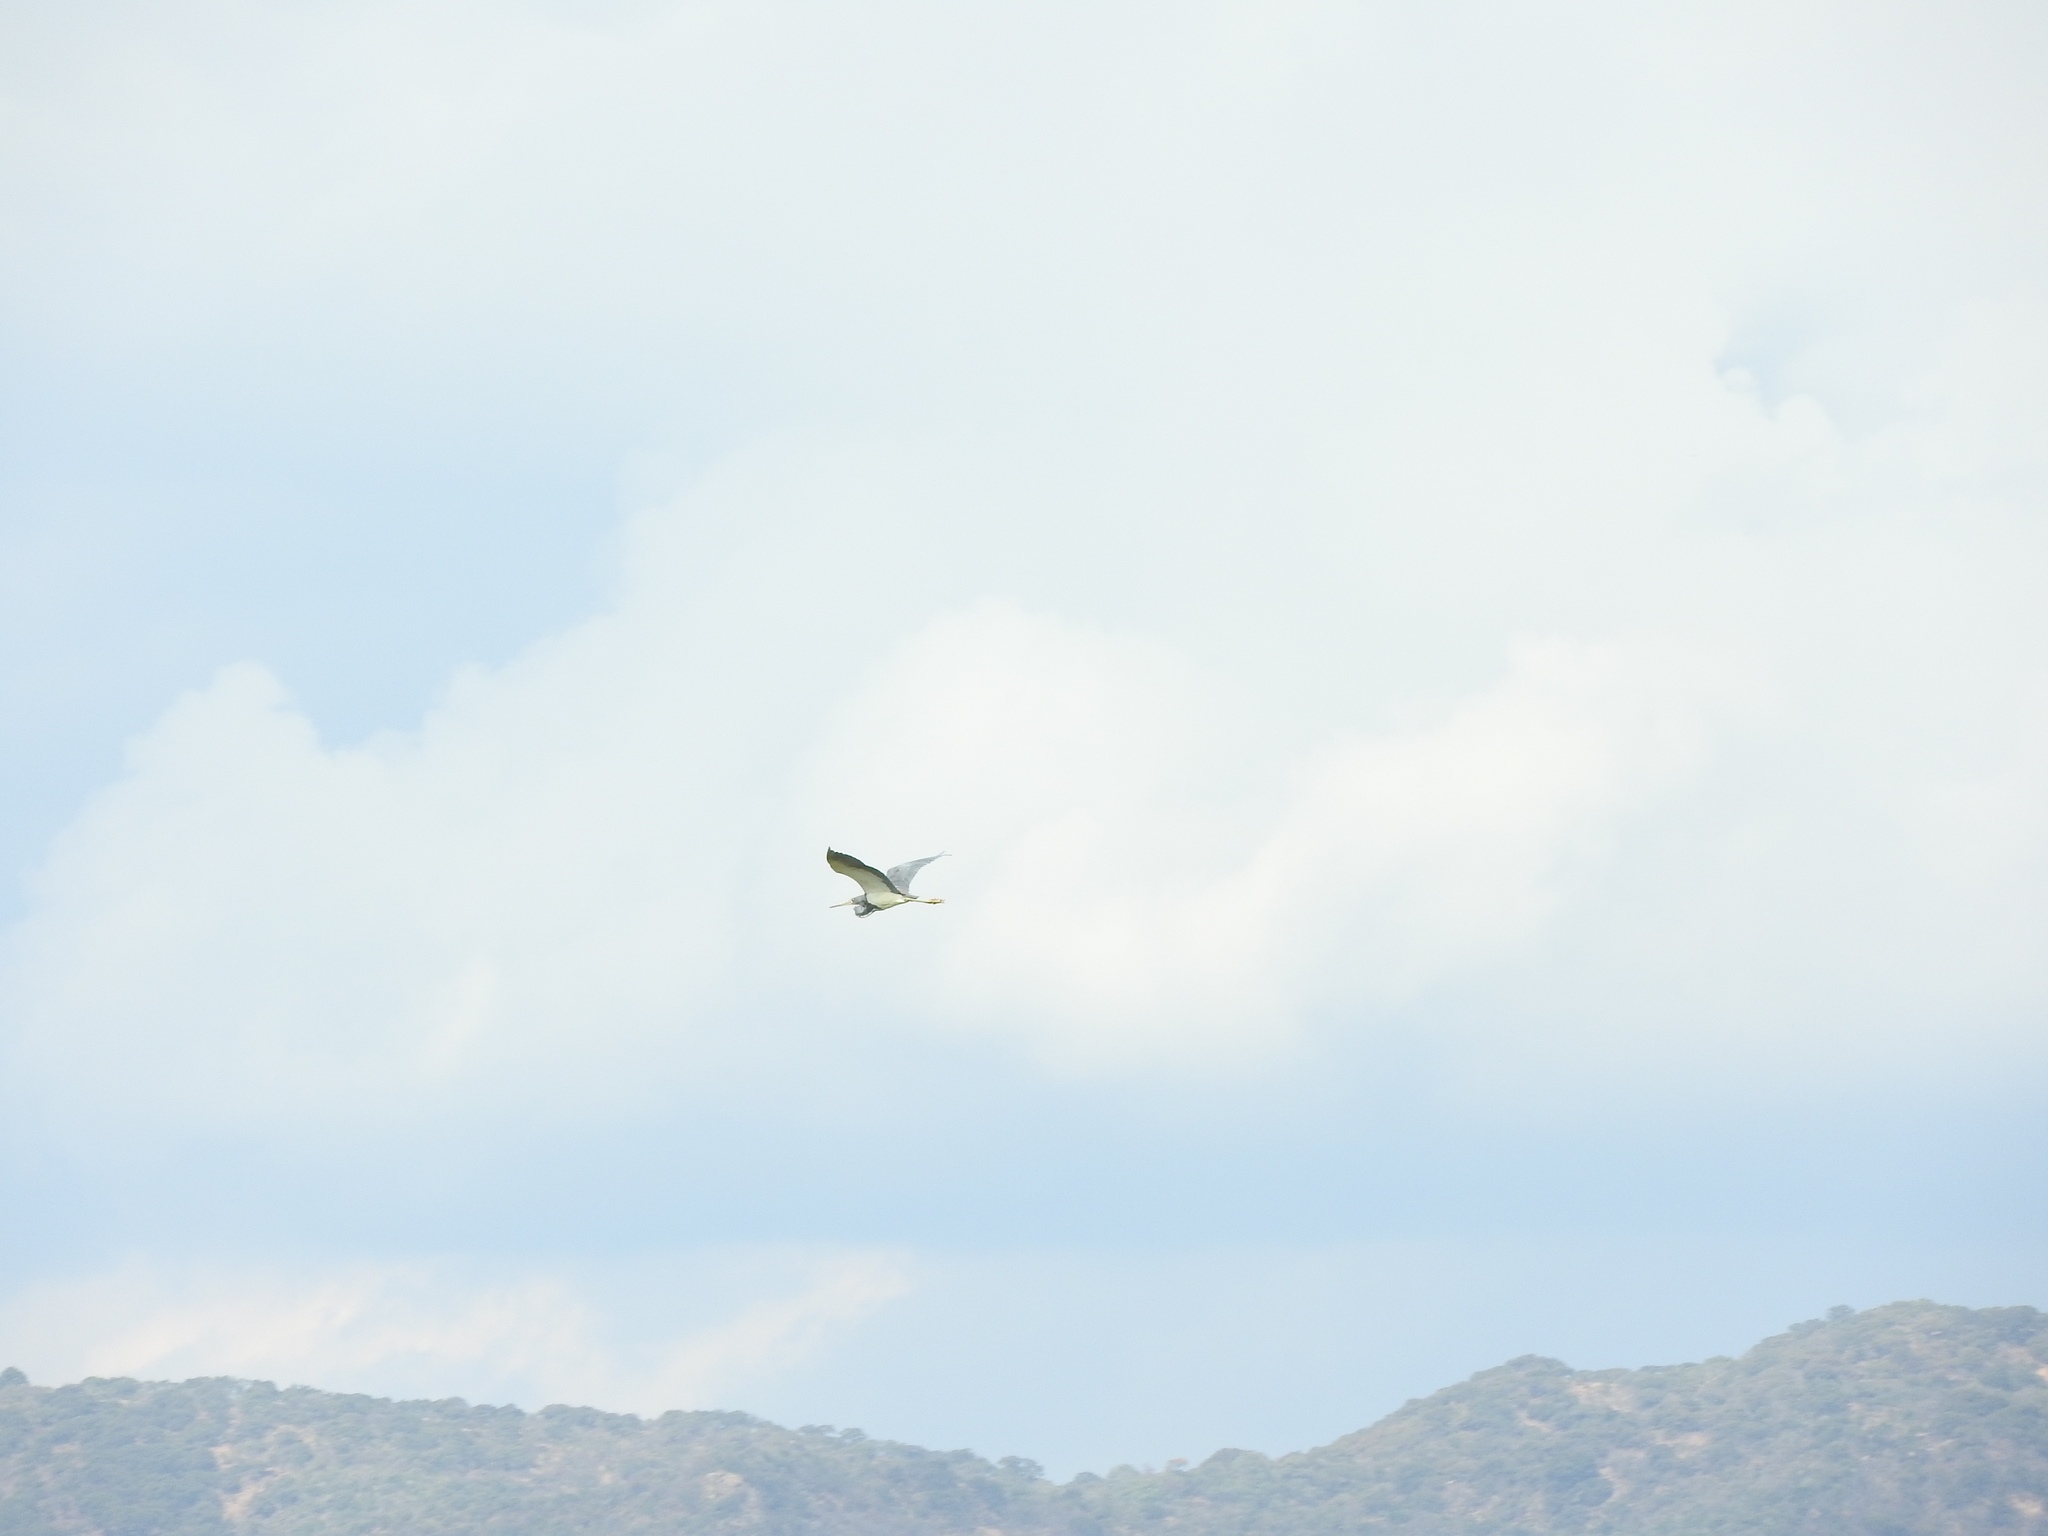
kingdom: Animalia
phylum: Chordata
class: Aves
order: Pelecaniformes
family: Ardeidae
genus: Egretta
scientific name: Egretta tricolor
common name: Tricolored heron
